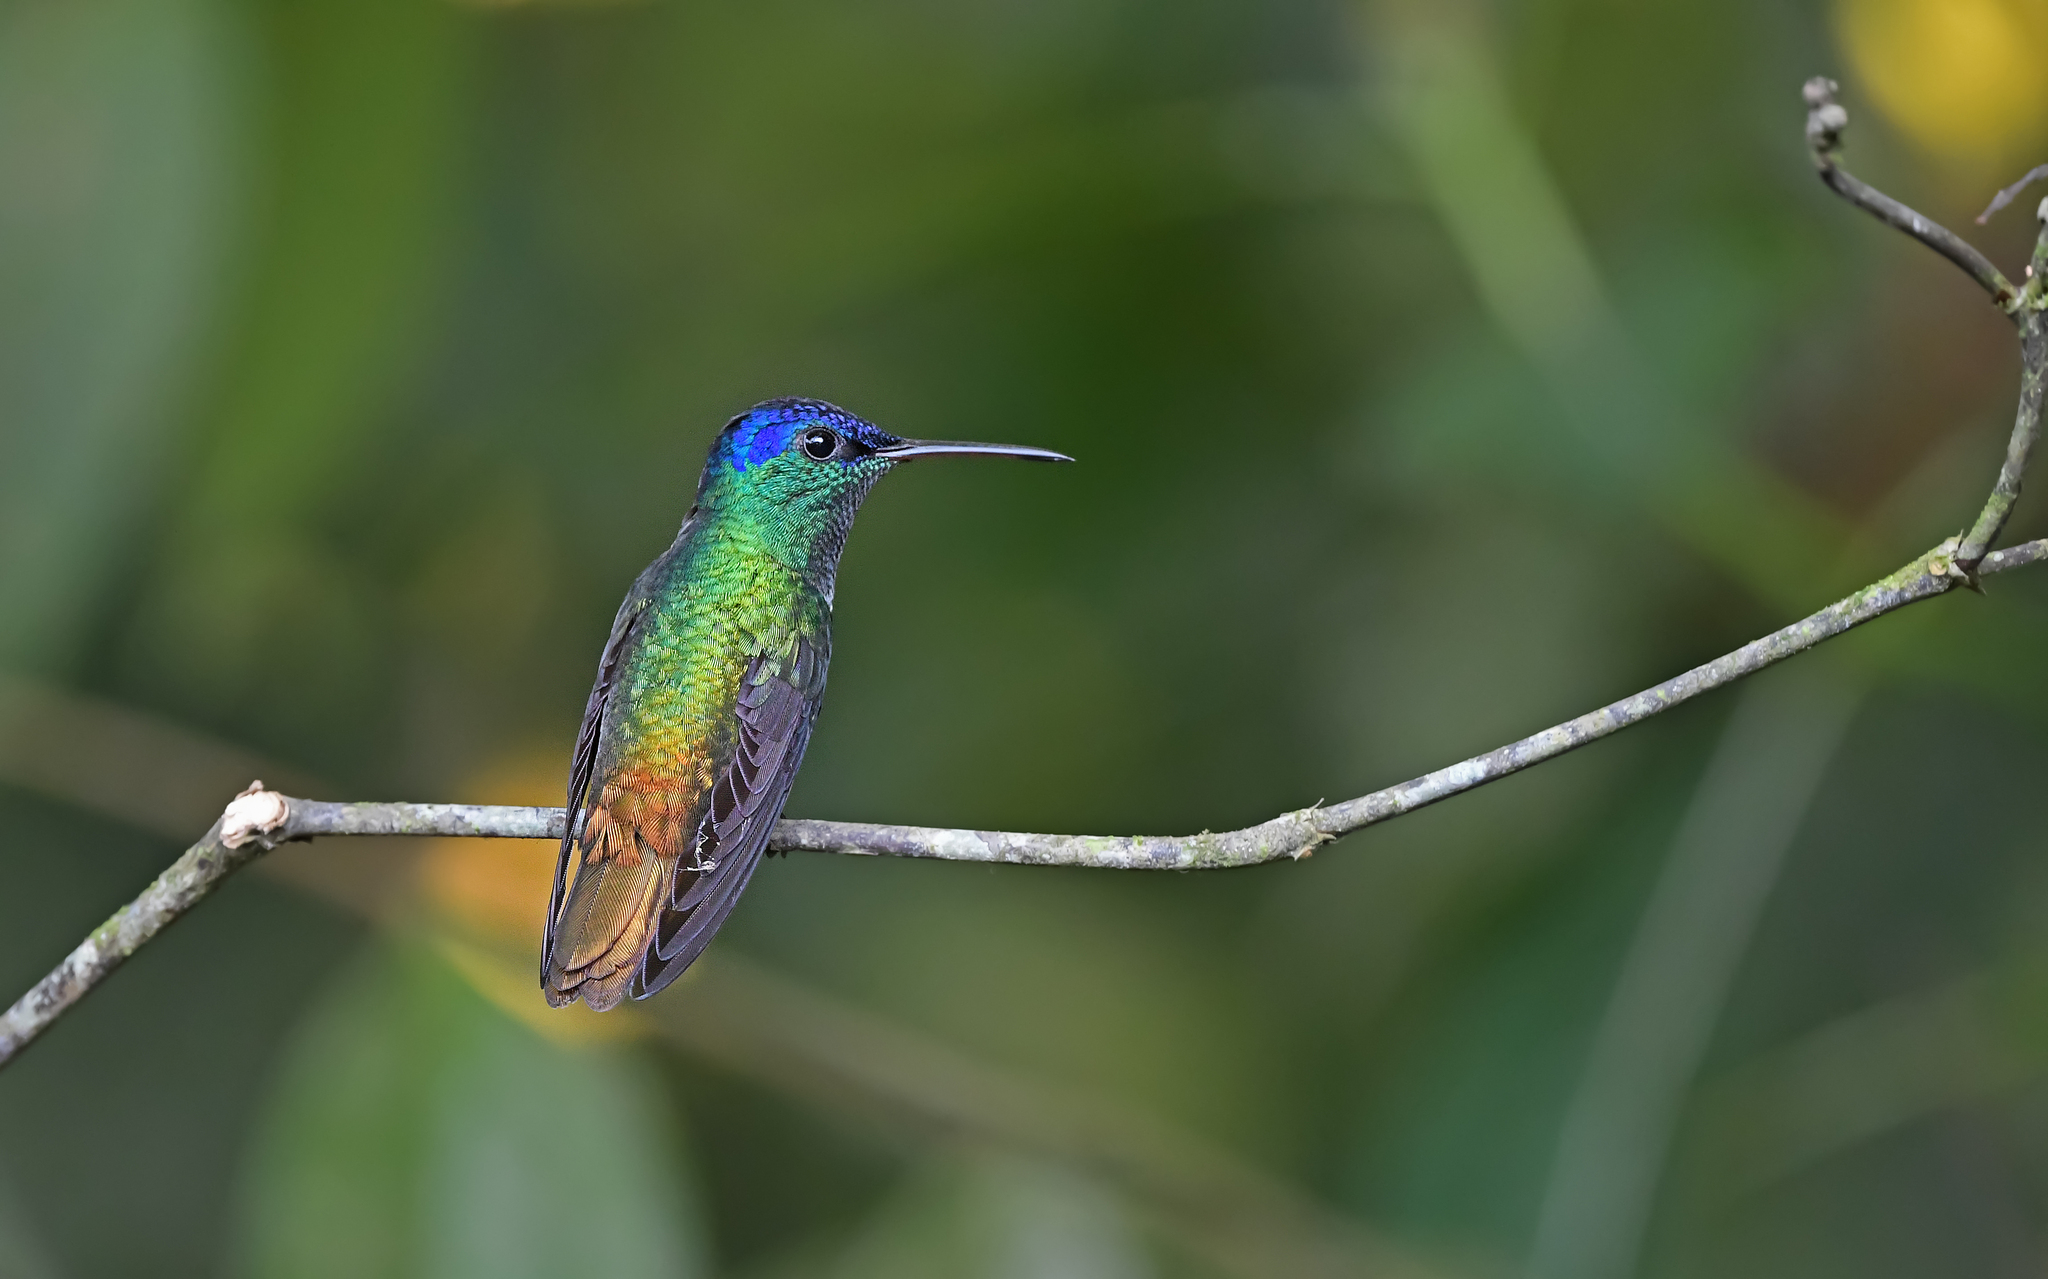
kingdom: Animalia
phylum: Chordata
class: Aves
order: Apodiformes
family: Trochilidae
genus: Chrysuronia
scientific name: Chrysuronia oenone
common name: Golden-tailed sapphire
